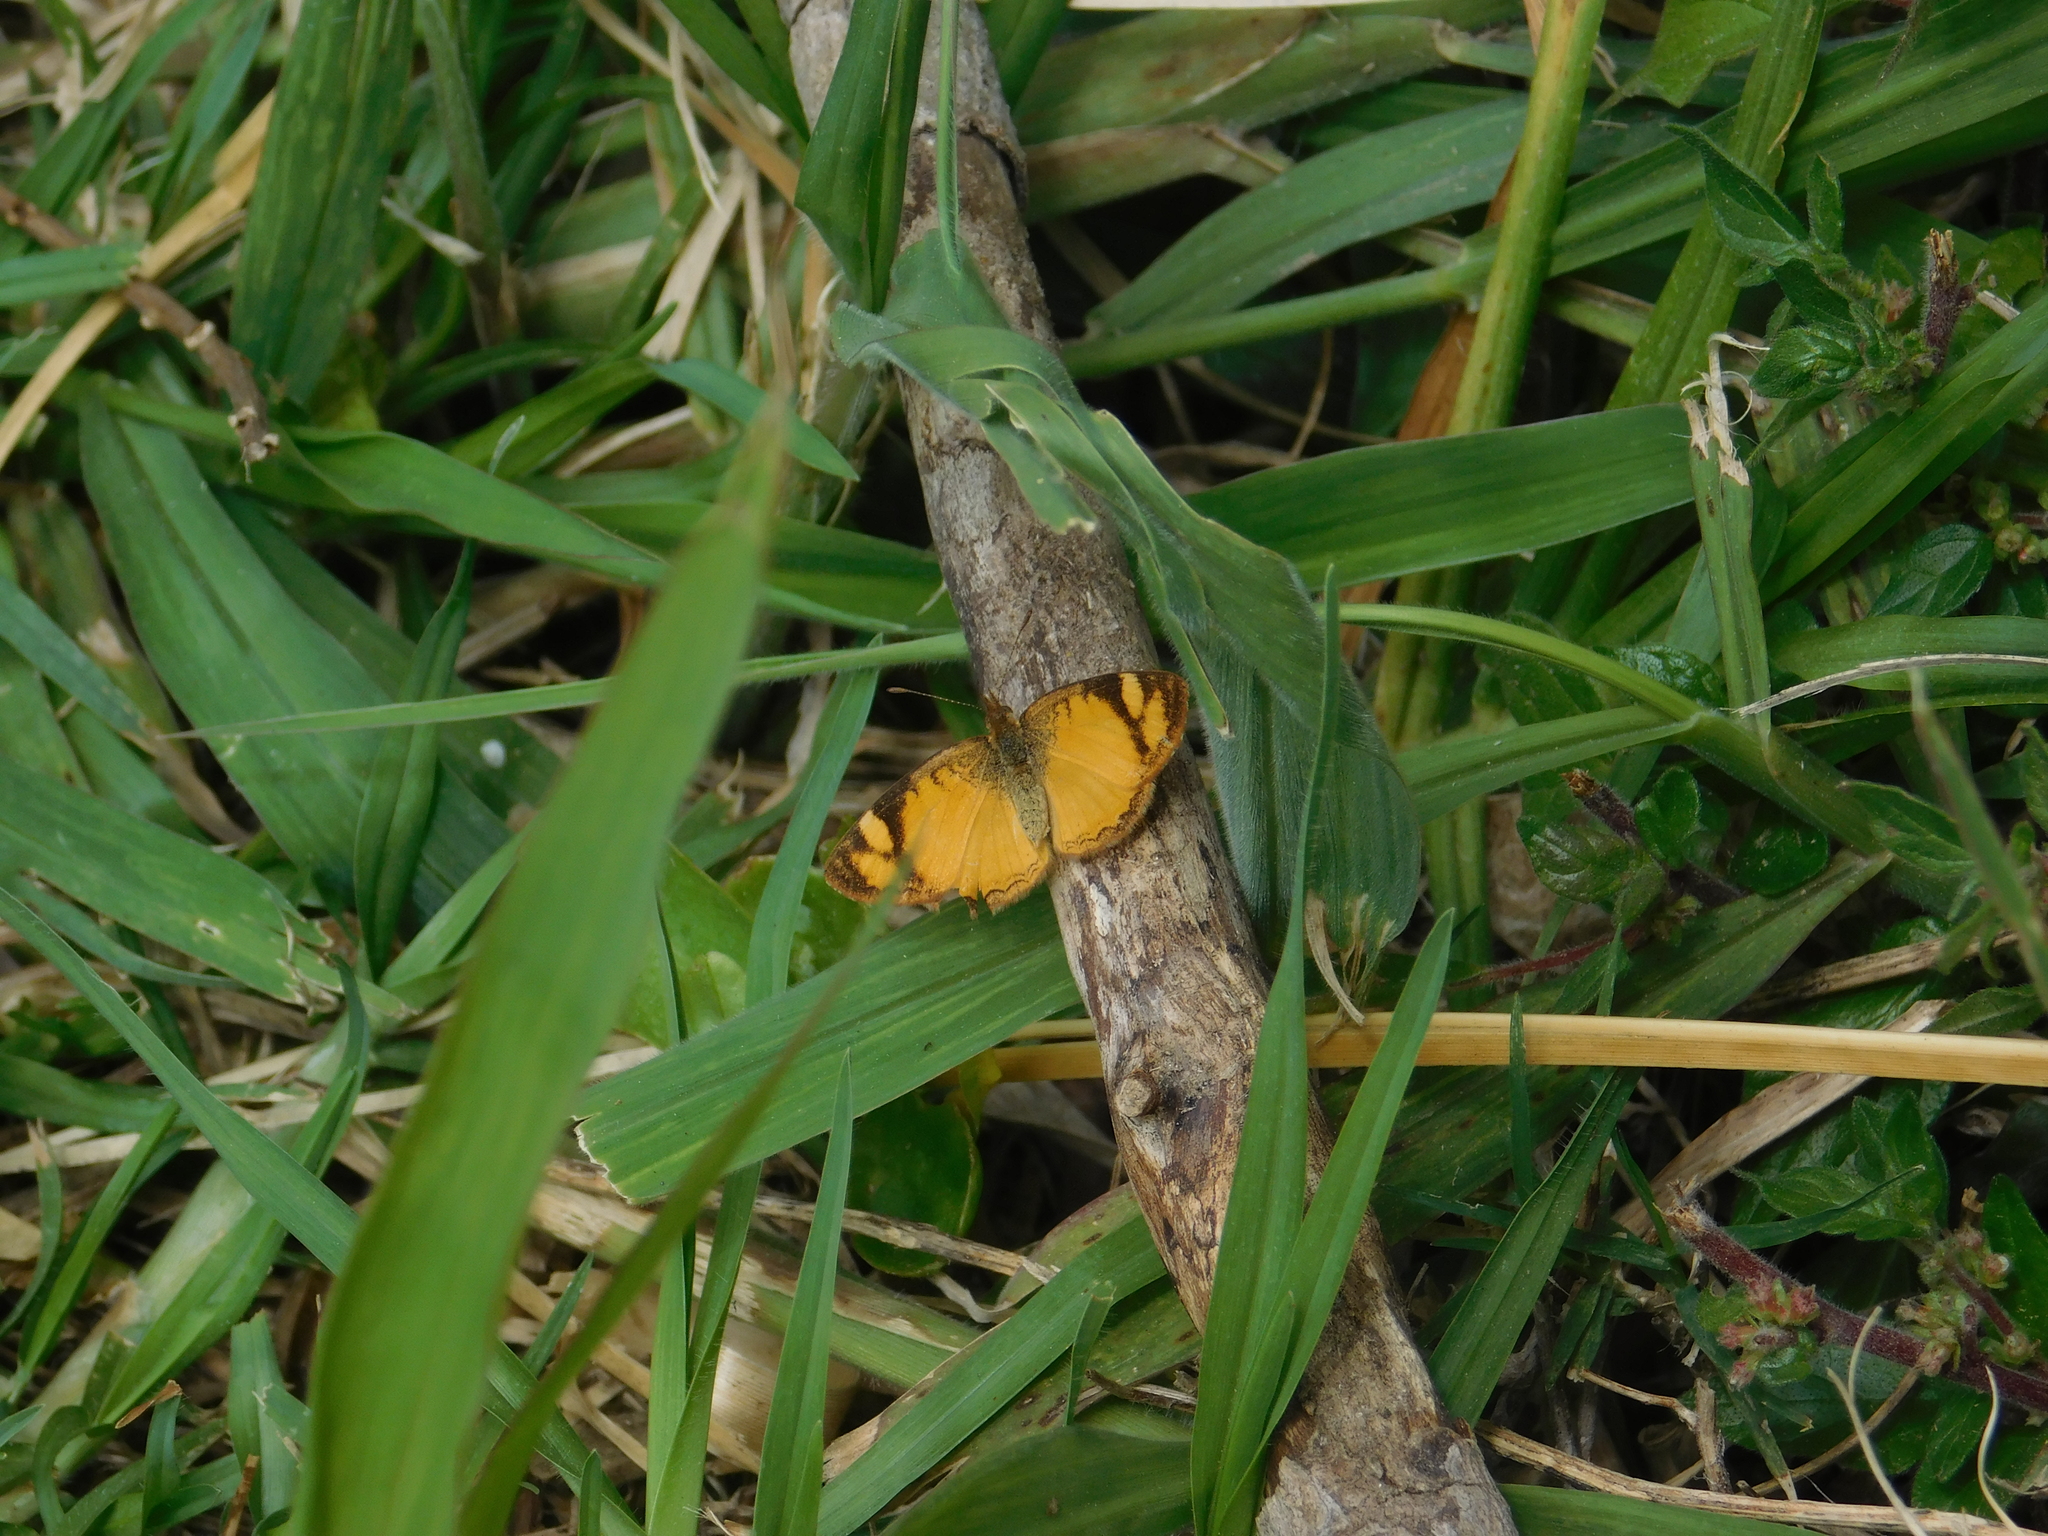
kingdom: Animalia
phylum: Arthropoda
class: Insecta
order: Lepidoptera
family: Nymphalidae
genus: Tegosa
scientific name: Tegosa claudina
